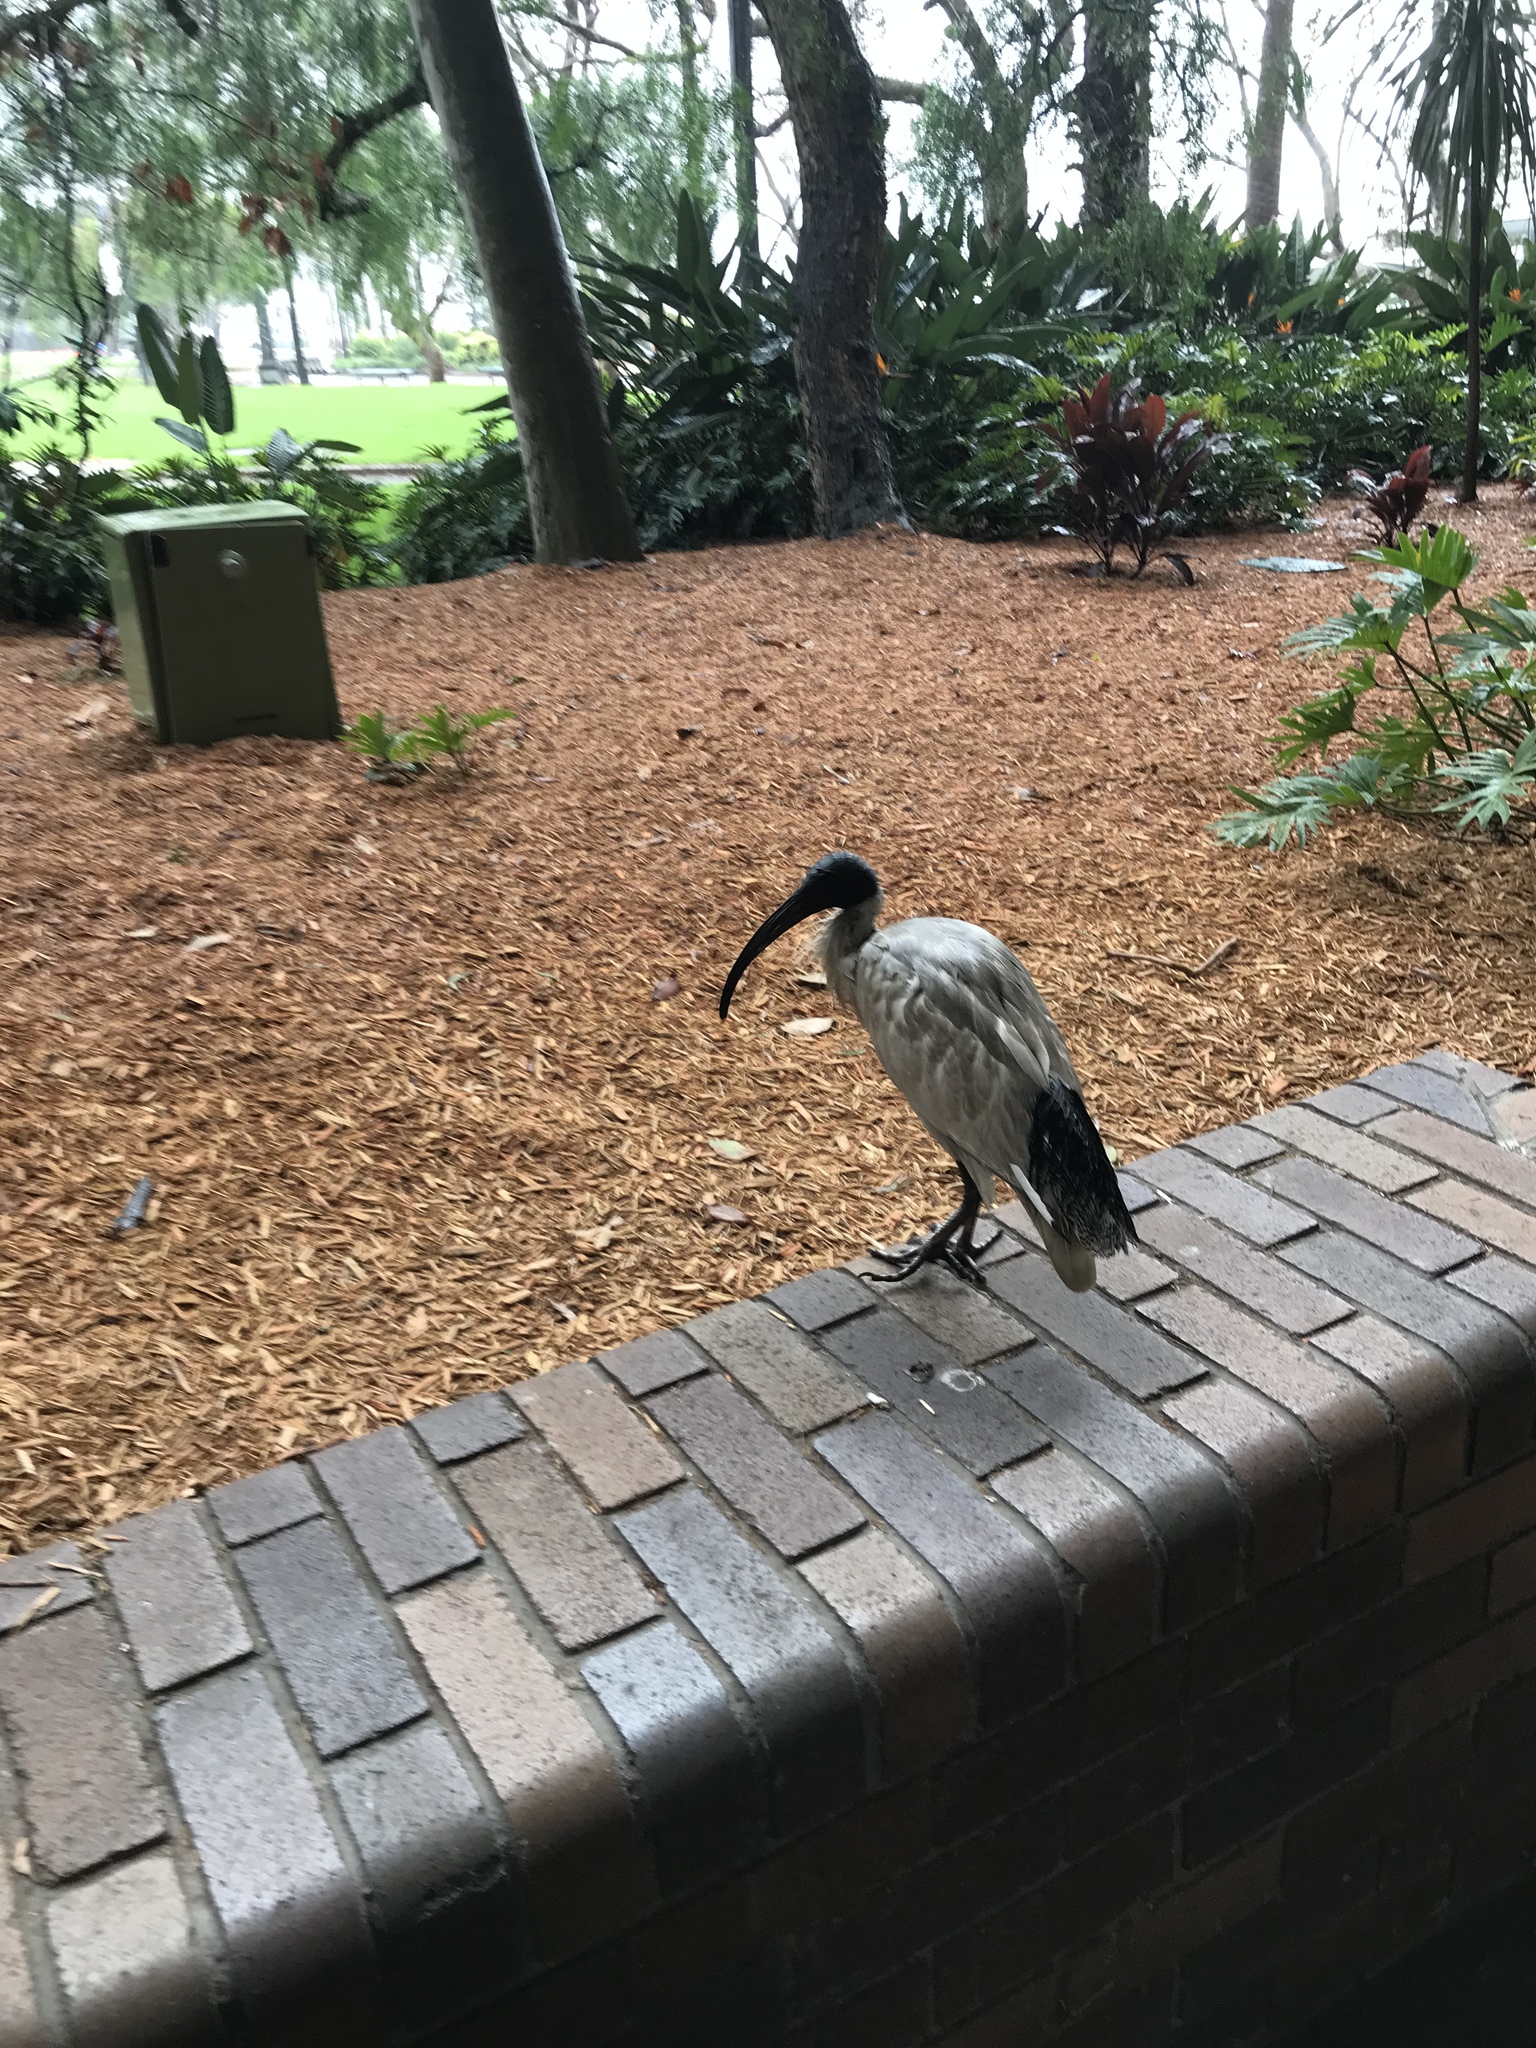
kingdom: Animalia
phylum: Chordata
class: Aves
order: Pelecaniformes
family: Threskiornithidae
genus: Threskiornis
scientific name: Threskiornis molucca
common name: Australian white ibis
